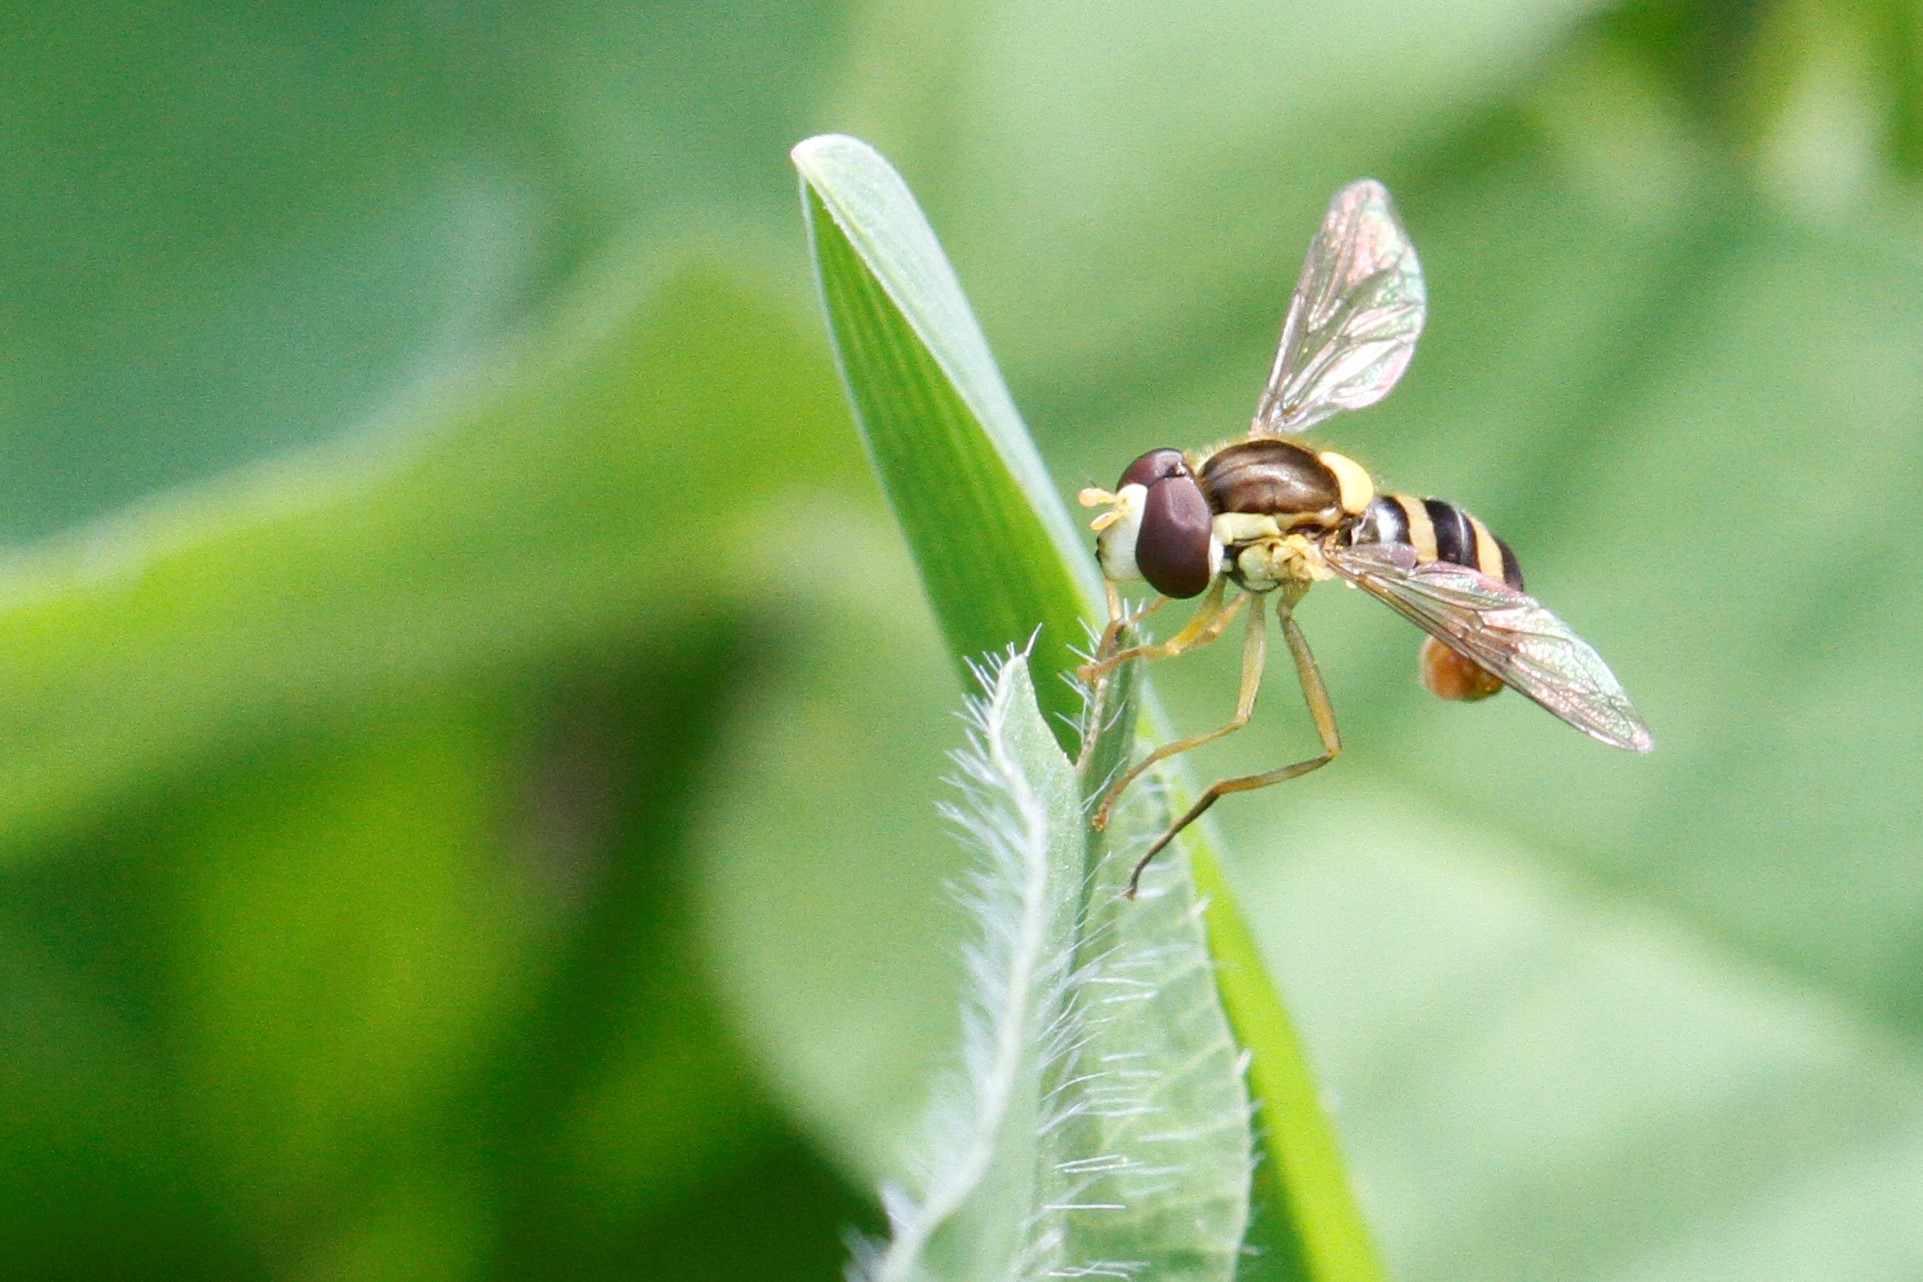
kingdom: Animalia
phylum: Arthropoda
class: Insecta
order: Diptera
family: Syrphidae
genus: Sphaerophoria
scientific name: Sphaerophoria
